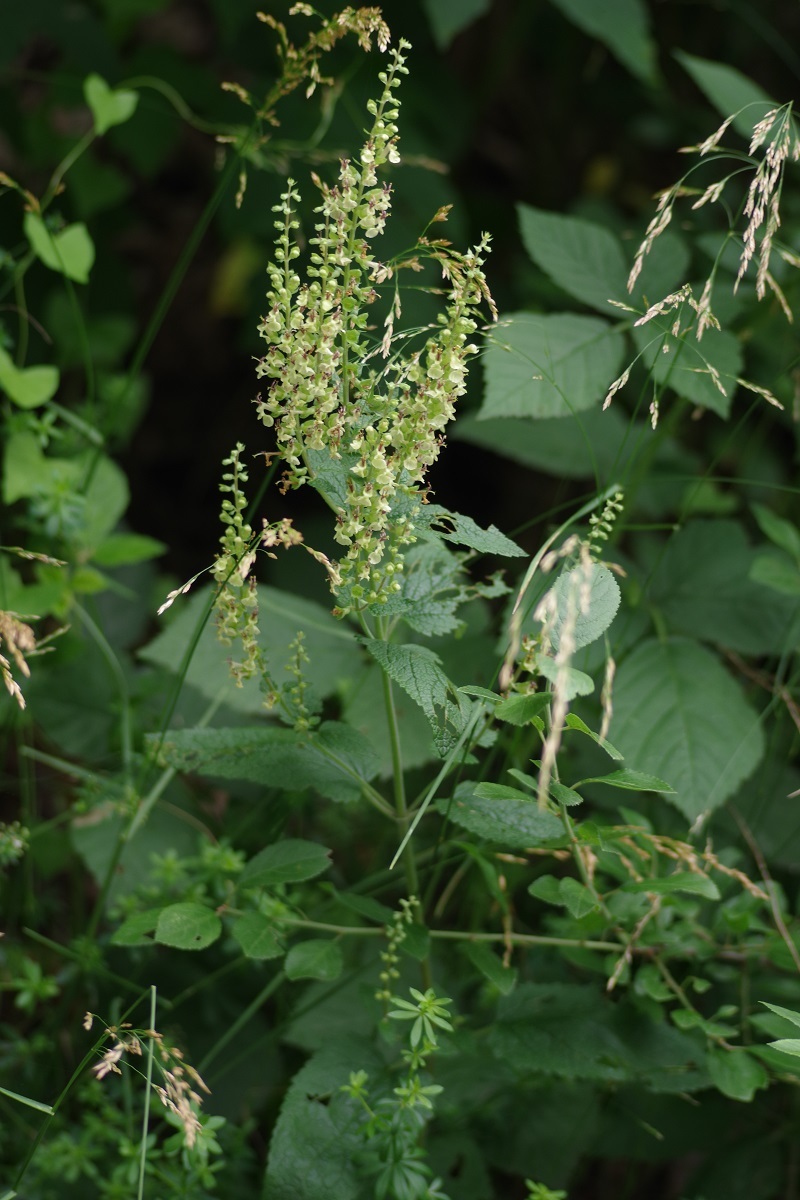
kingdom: Plantae
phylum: Tracheophyta
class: Magnoliopsida
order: Lamiales
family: Lamiaceae
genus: Teucrium
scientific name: Teucrium scorodonia
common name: Woodland germander
